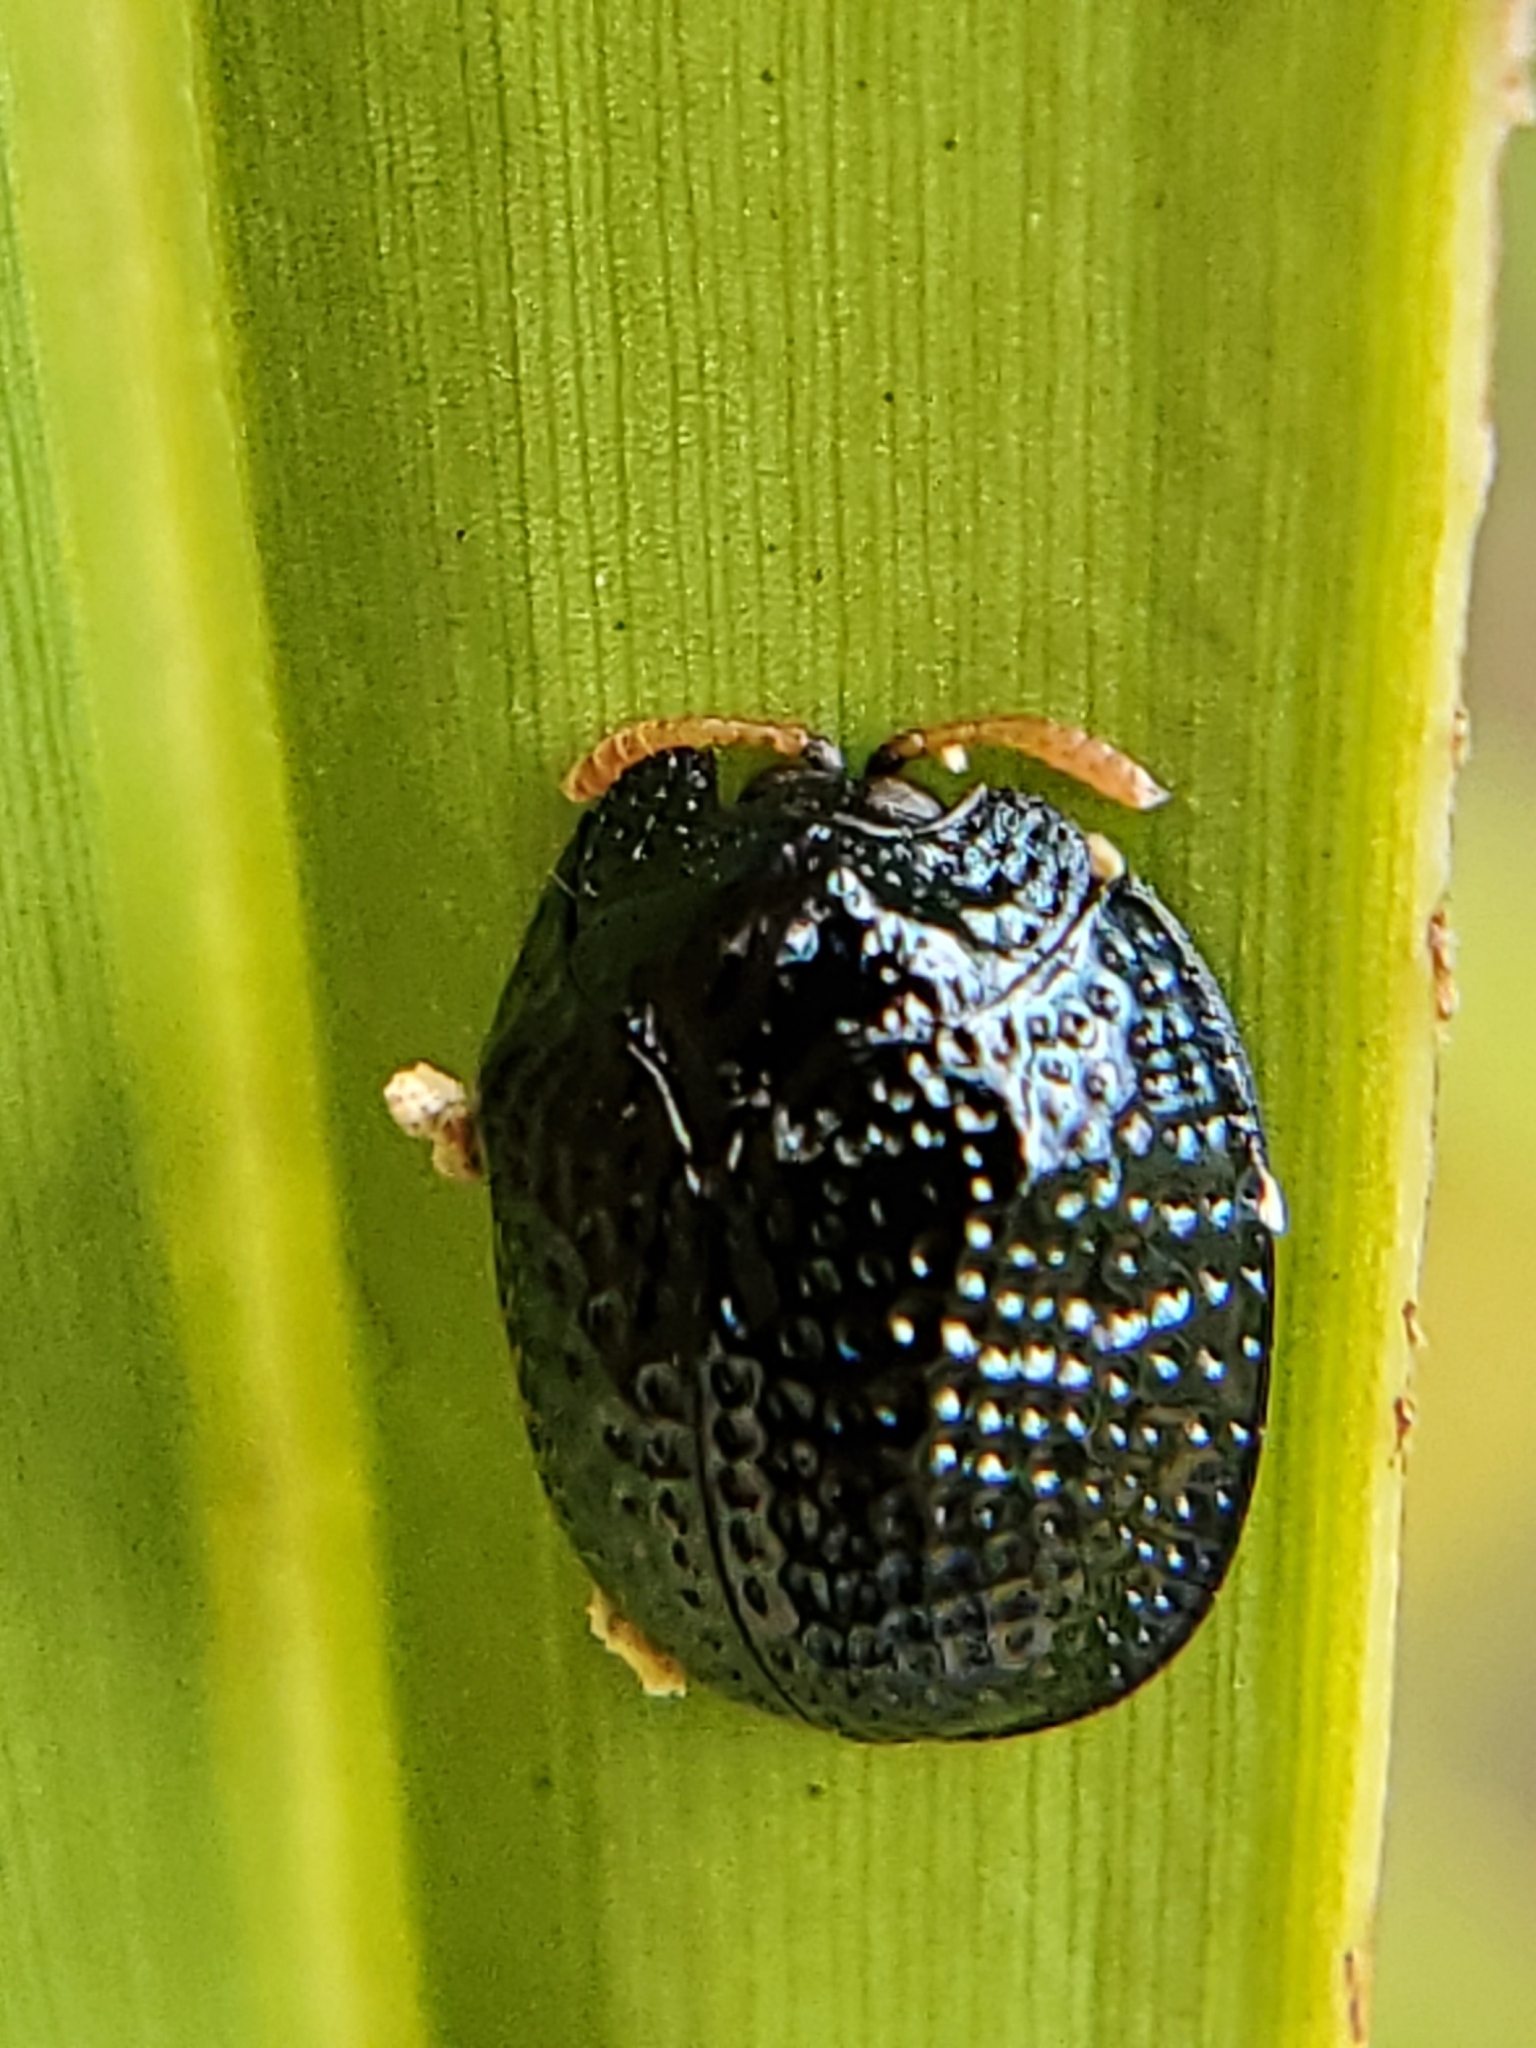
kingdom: Animalia
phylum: Arthropoda
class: Insecta
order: Coleoptera
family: Chrysomelidae
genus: Hemisphaerota
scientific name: Hemisphaerota cyanea
